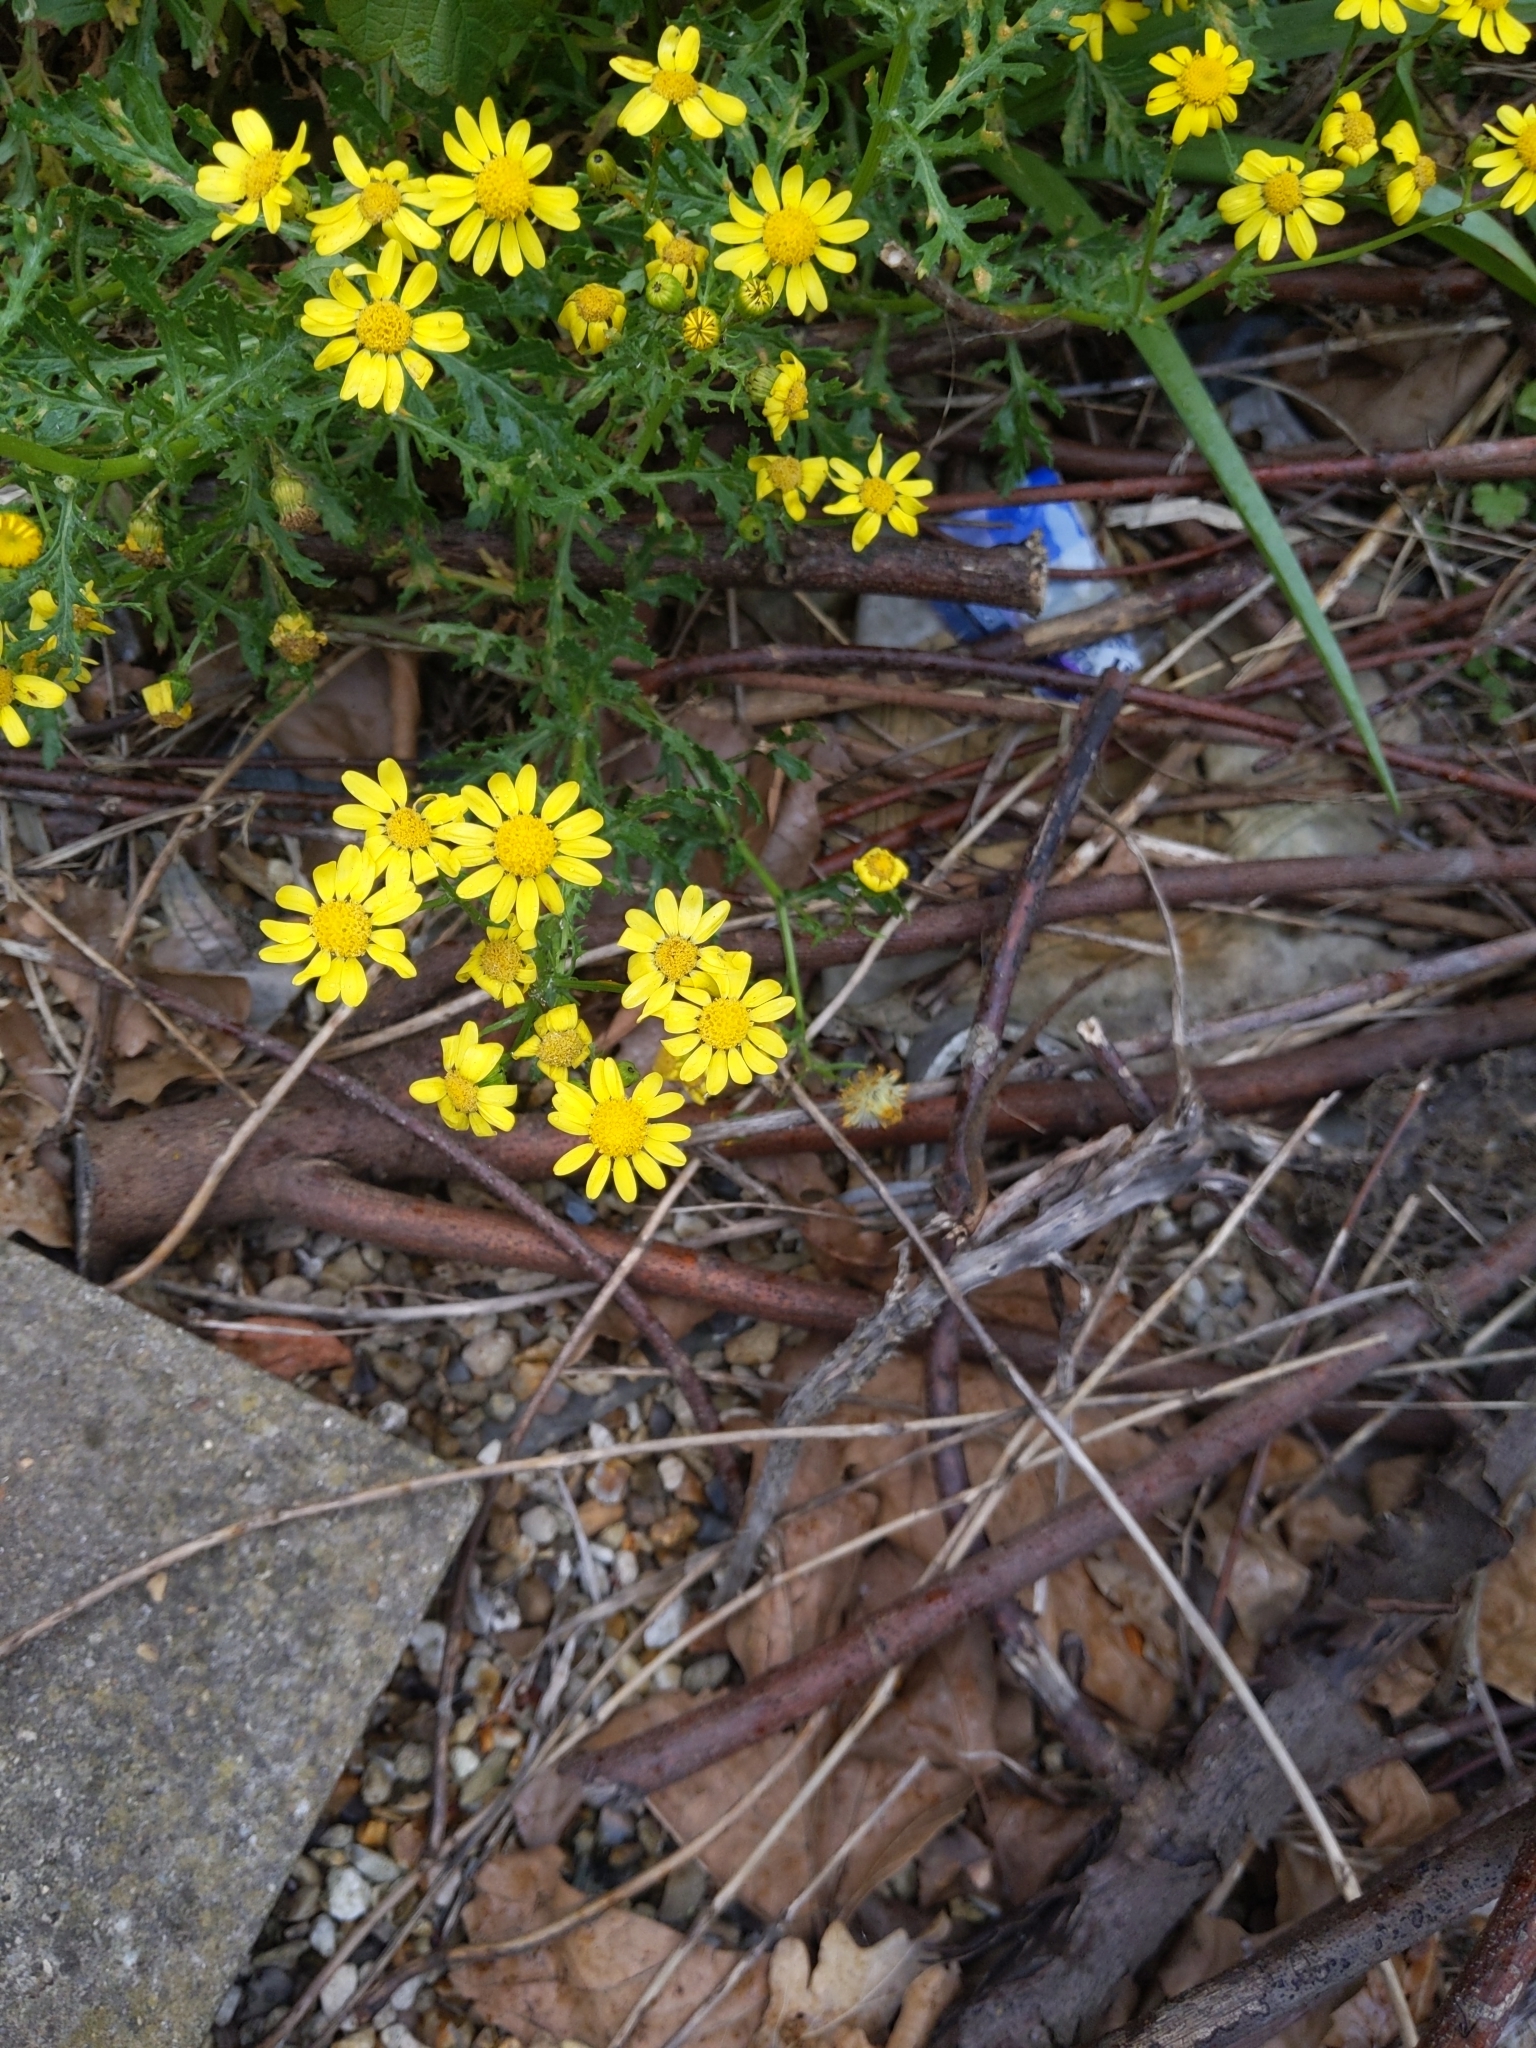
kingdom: Plantae
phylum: Tracheophyta
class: Magnoliopsida
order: Asterales
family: Asteraceae
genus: Senecio
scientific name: Senecio squalidus
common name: Oxford ragwort
